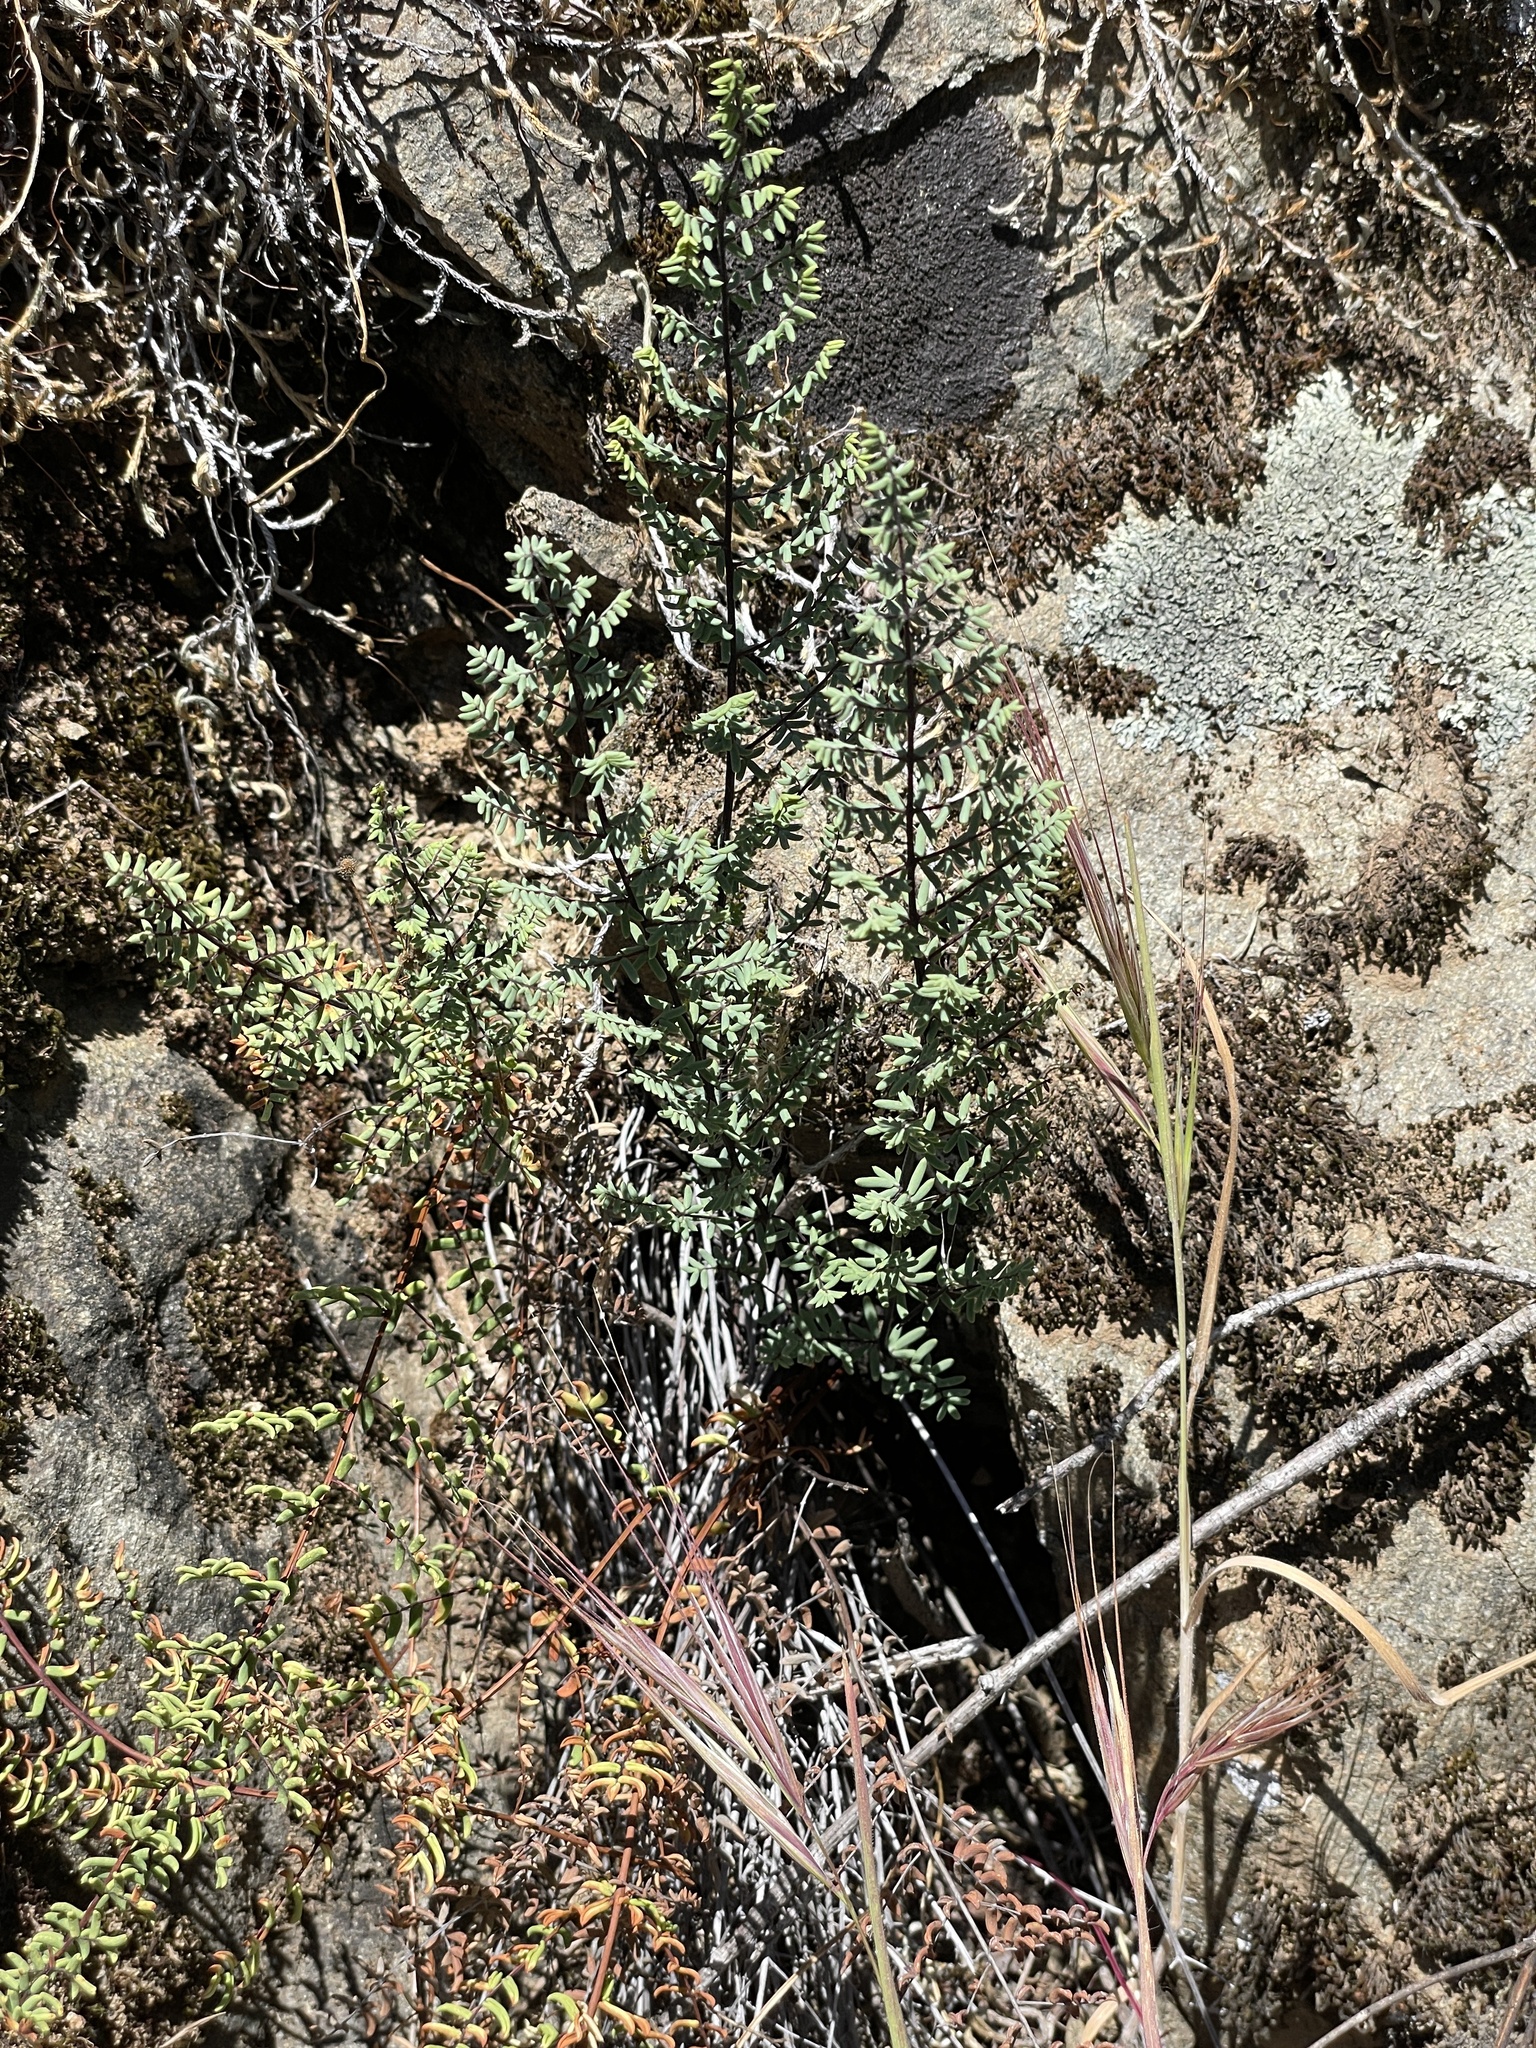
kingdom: Plantae
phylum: Tracheophyta
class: Polypodiopsida
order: Polypodiales
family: Pteridaceae
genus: Pellaea
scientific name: Pellaea mucronata
